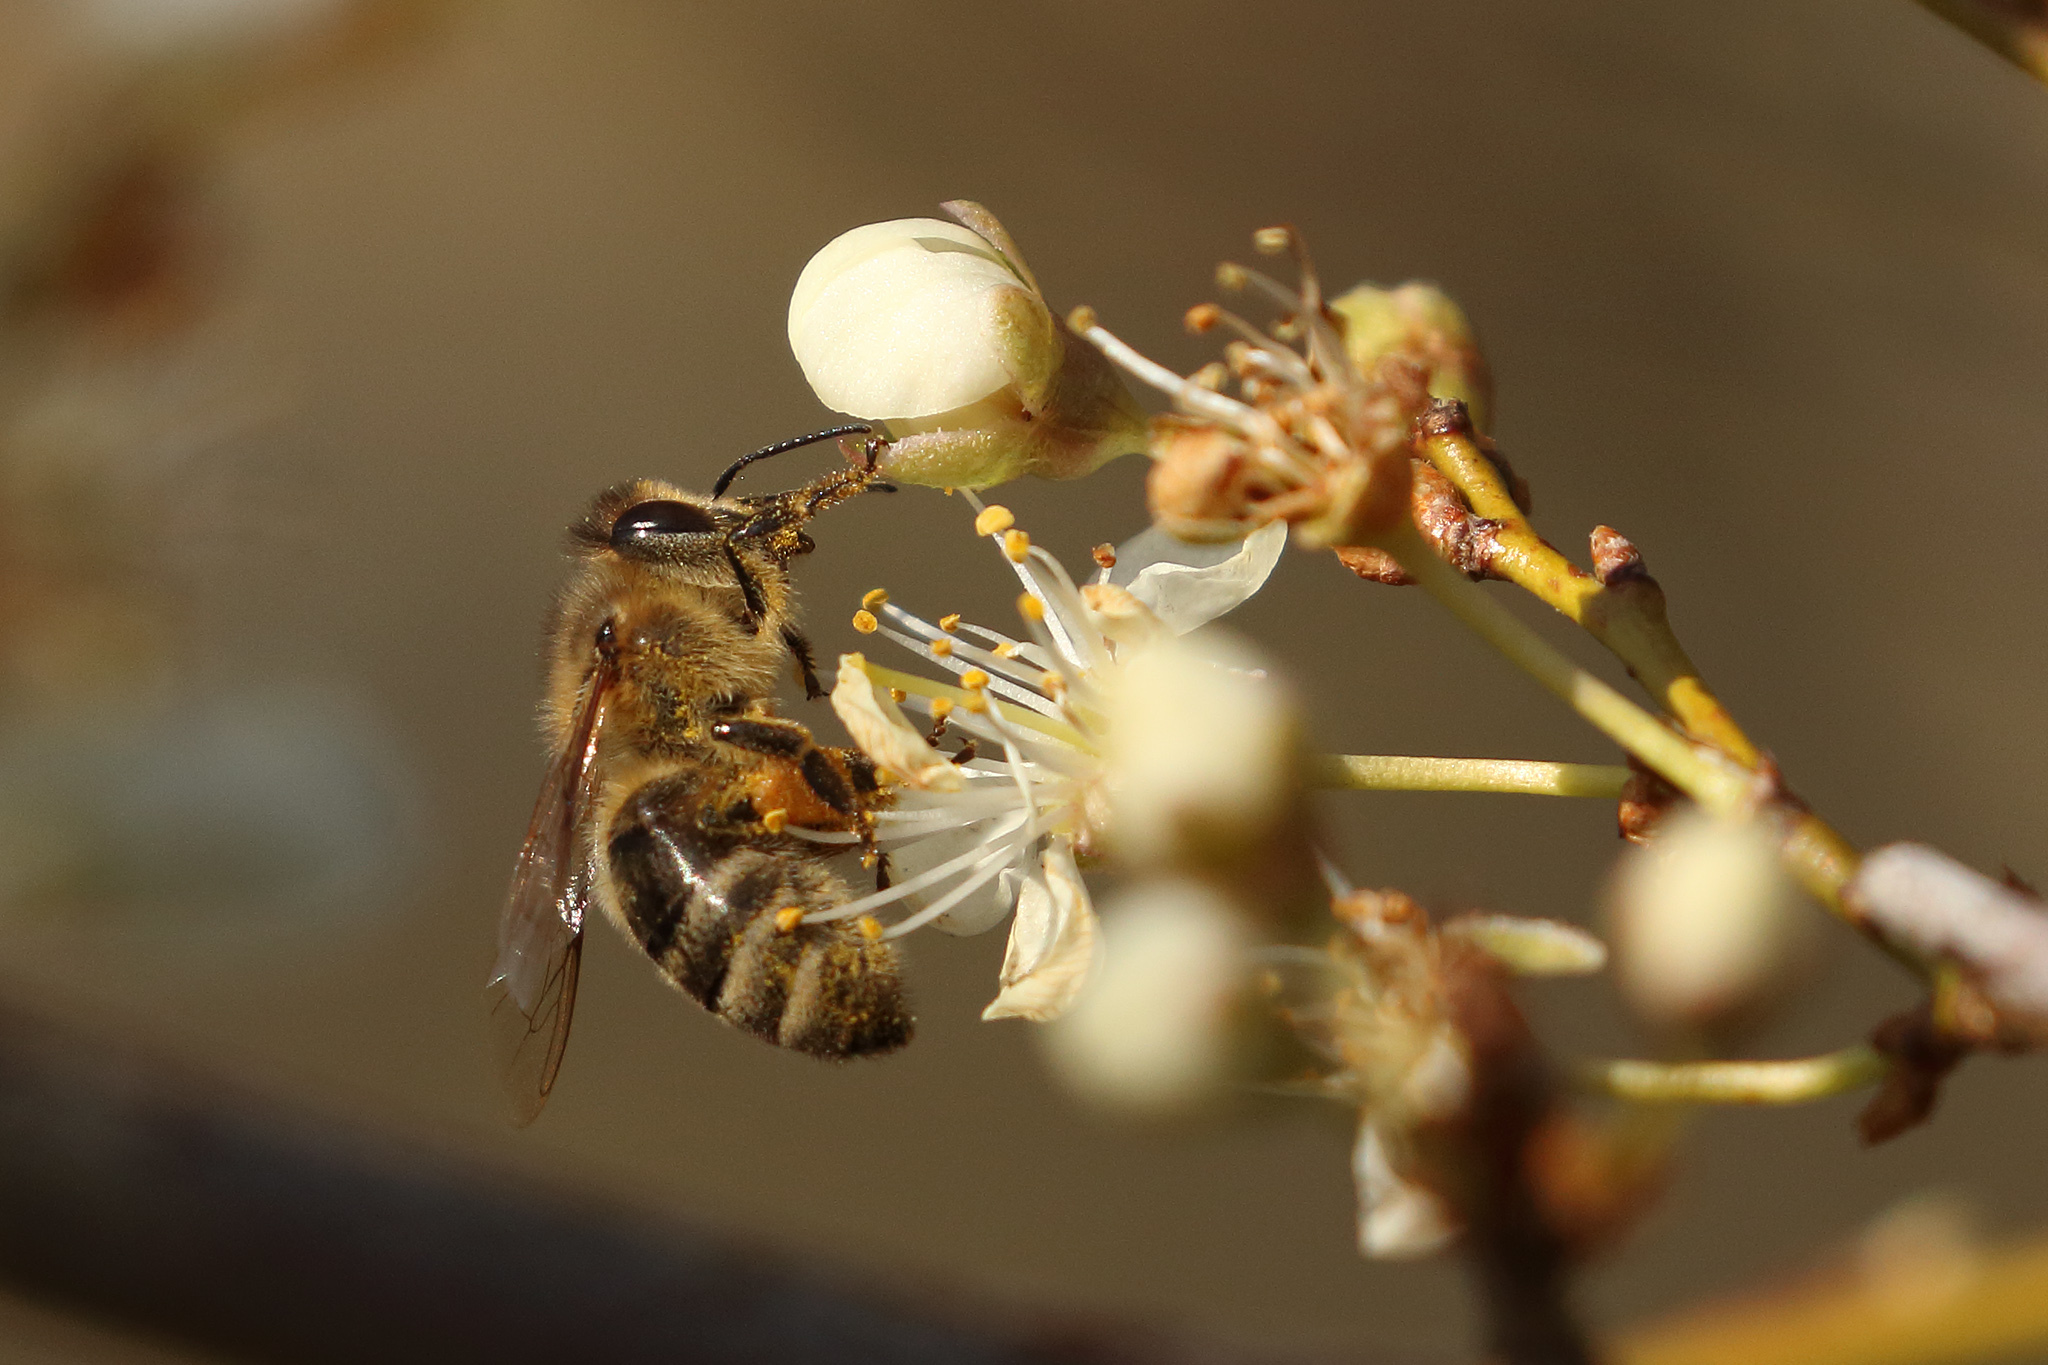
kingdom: Animalia
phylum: Arthropoda
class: Insecta
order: Hymenoptera
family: Apidae
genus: Apis
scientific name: Apis mellifera
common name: Honey bee
